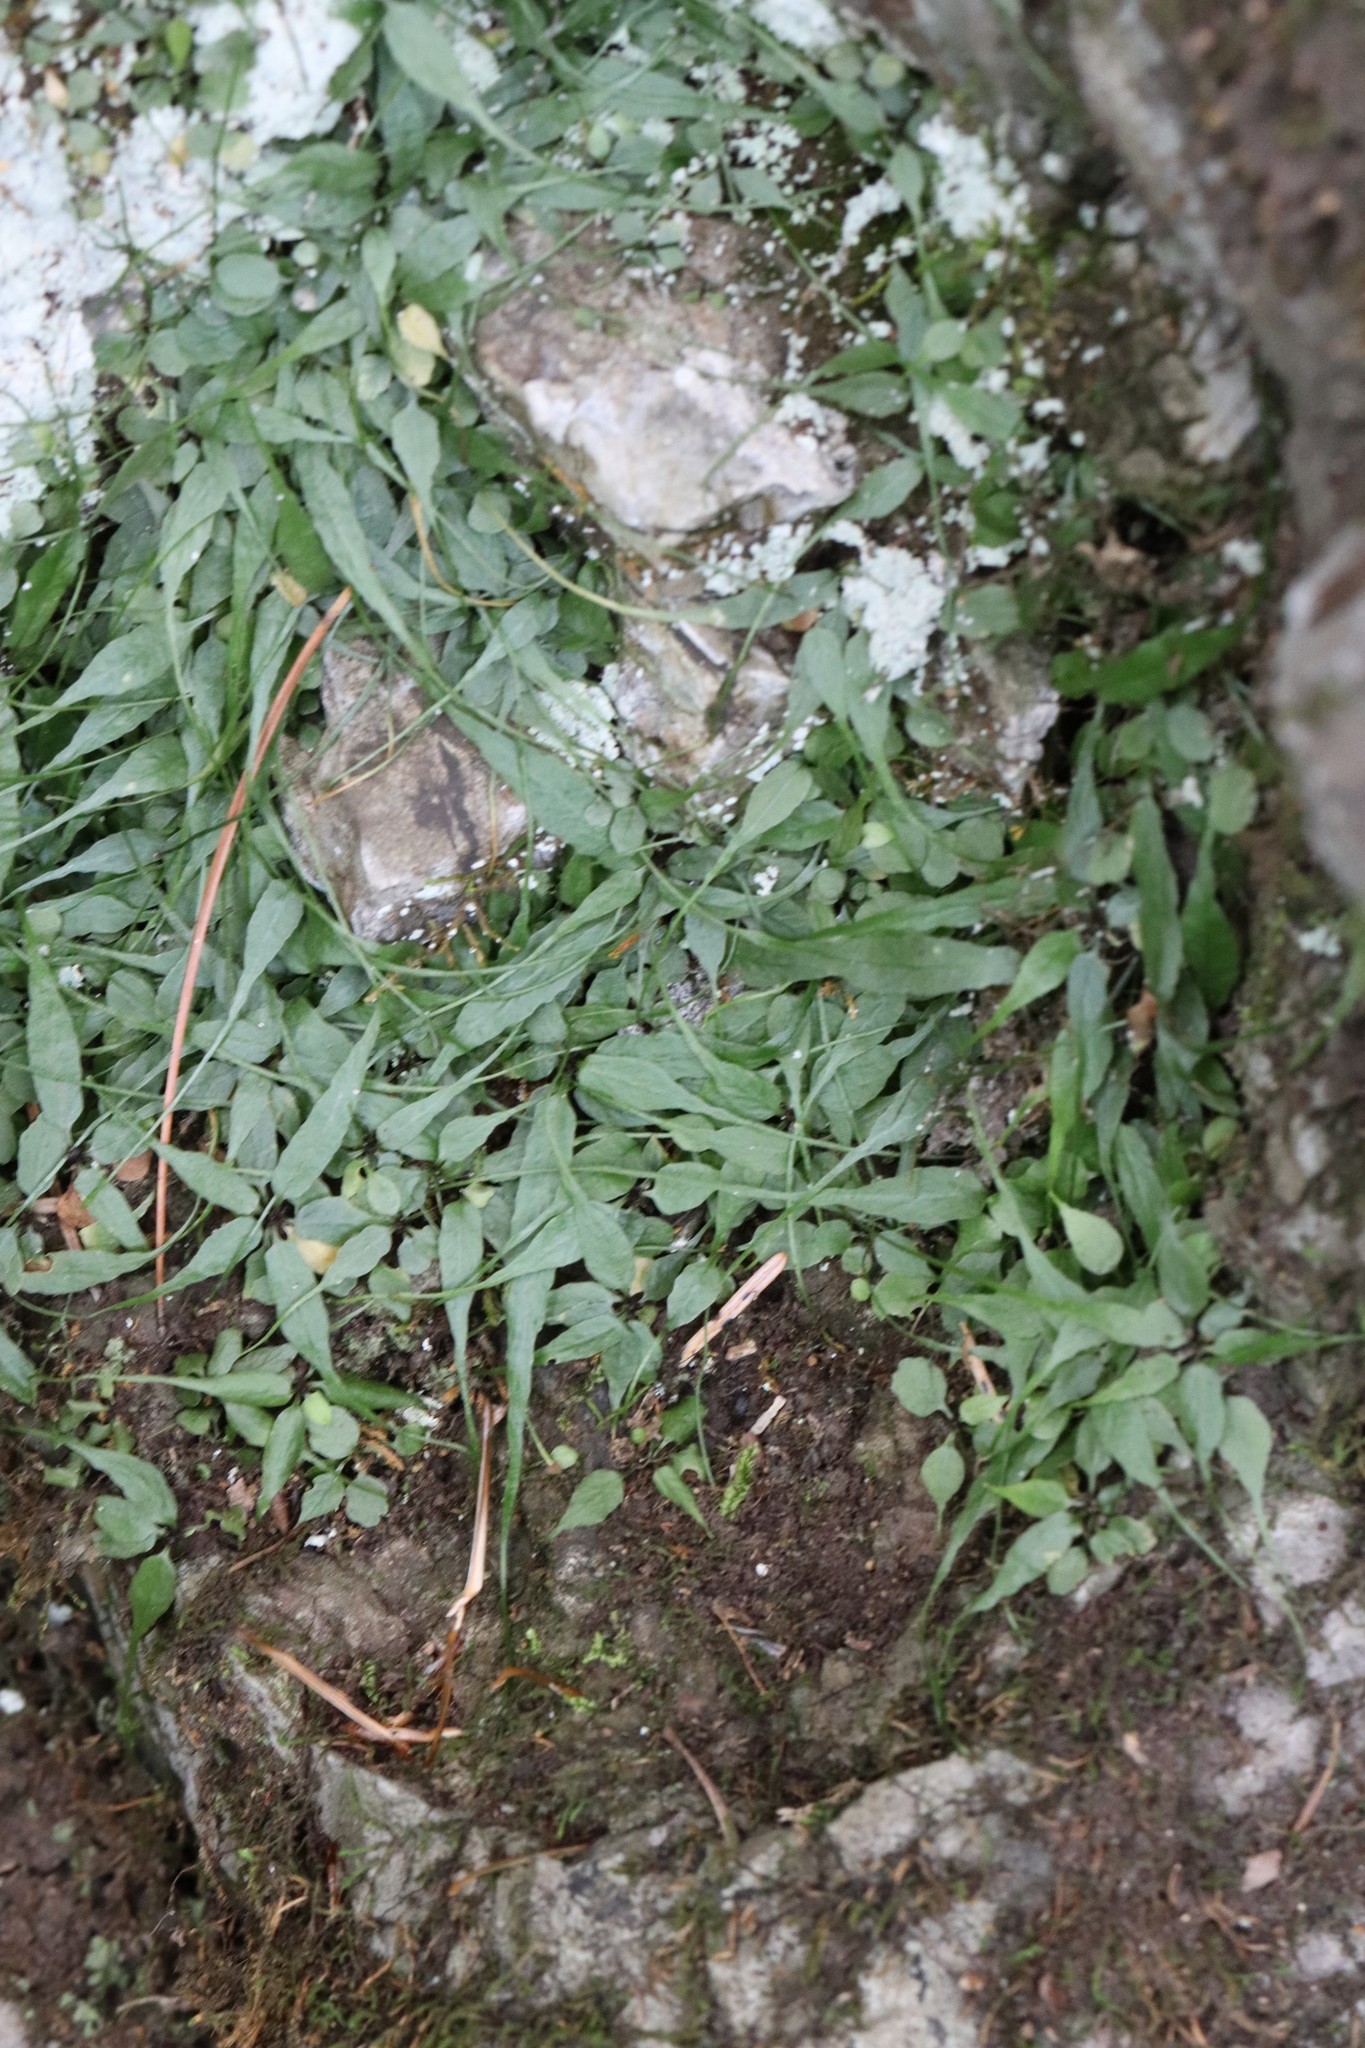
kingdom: Plantae
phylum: Tracheophyta
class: Polypodiopsida
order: Polypodiales
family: Aspleniaceae
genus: Asplenium
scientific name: Asplenium ruprechtii
